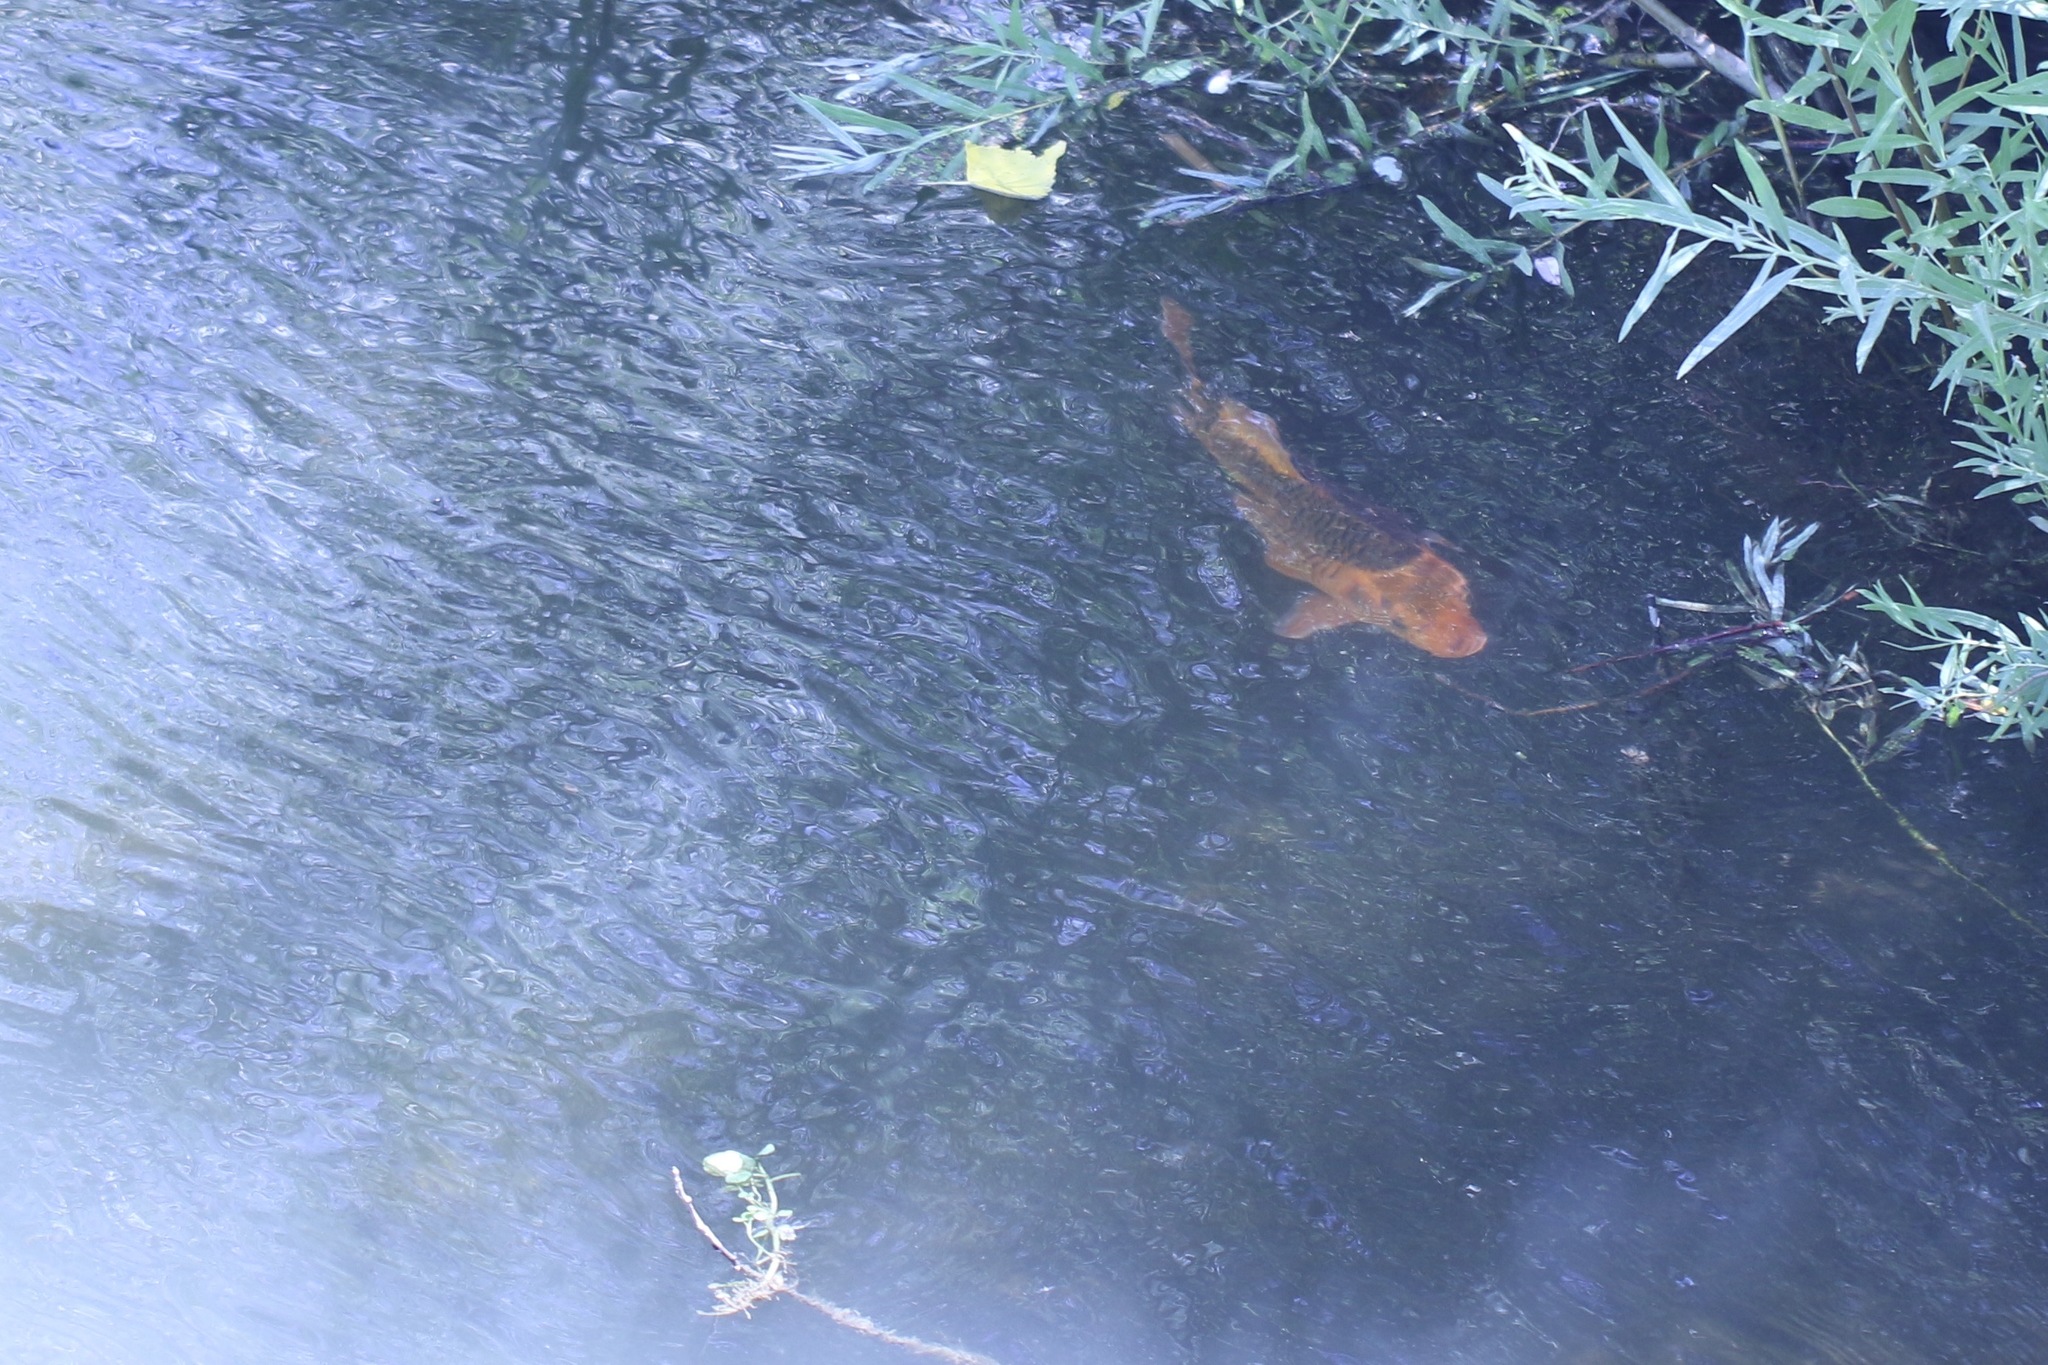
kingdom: Animalia
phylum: Chordata
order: Cypriniformes
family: Cyprinidae
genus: Cyprinus
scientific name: Cyprinus rubrofuscus
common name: Koi
